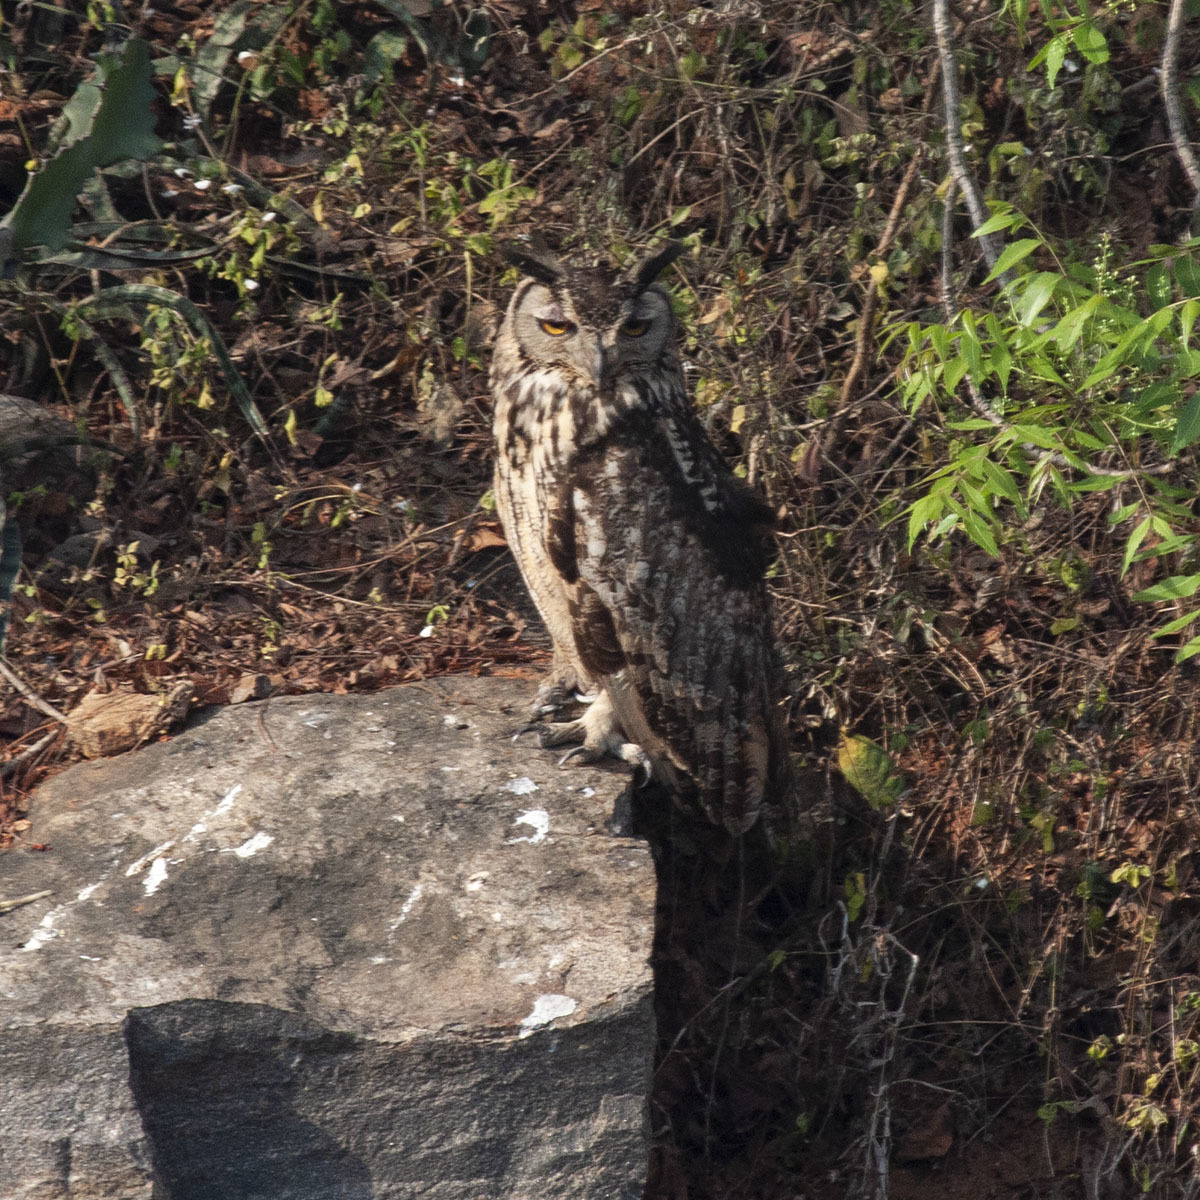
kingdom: Animalia
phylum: Chordata
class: Aves
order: Strigiformes
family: Strigidae
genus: Bubo
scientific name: Bubo bengalensis
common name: Indian eagle-owl
